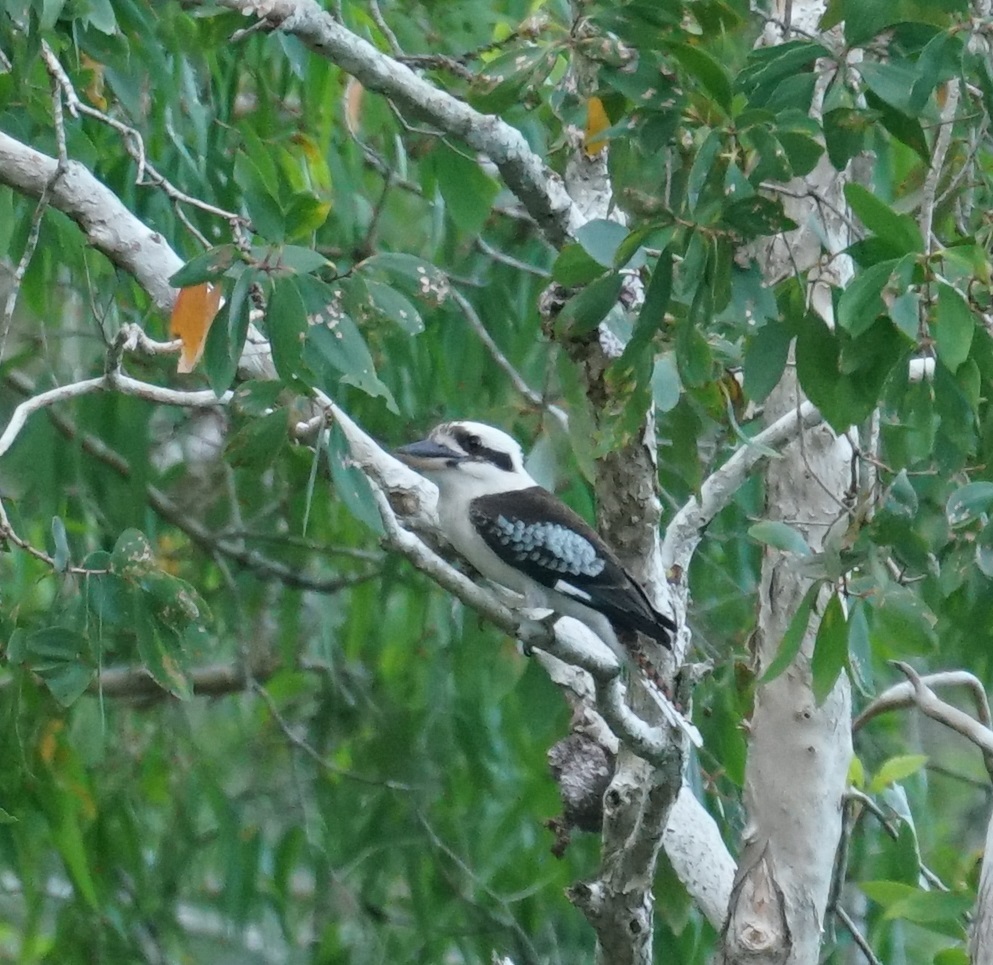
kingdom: Animalia
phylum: Chordata
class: Aves
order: Coraciiformes
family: Alcedinidae
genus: Dacelo
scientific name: Dacelo novaeguineae
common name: Laughing kookaburra
